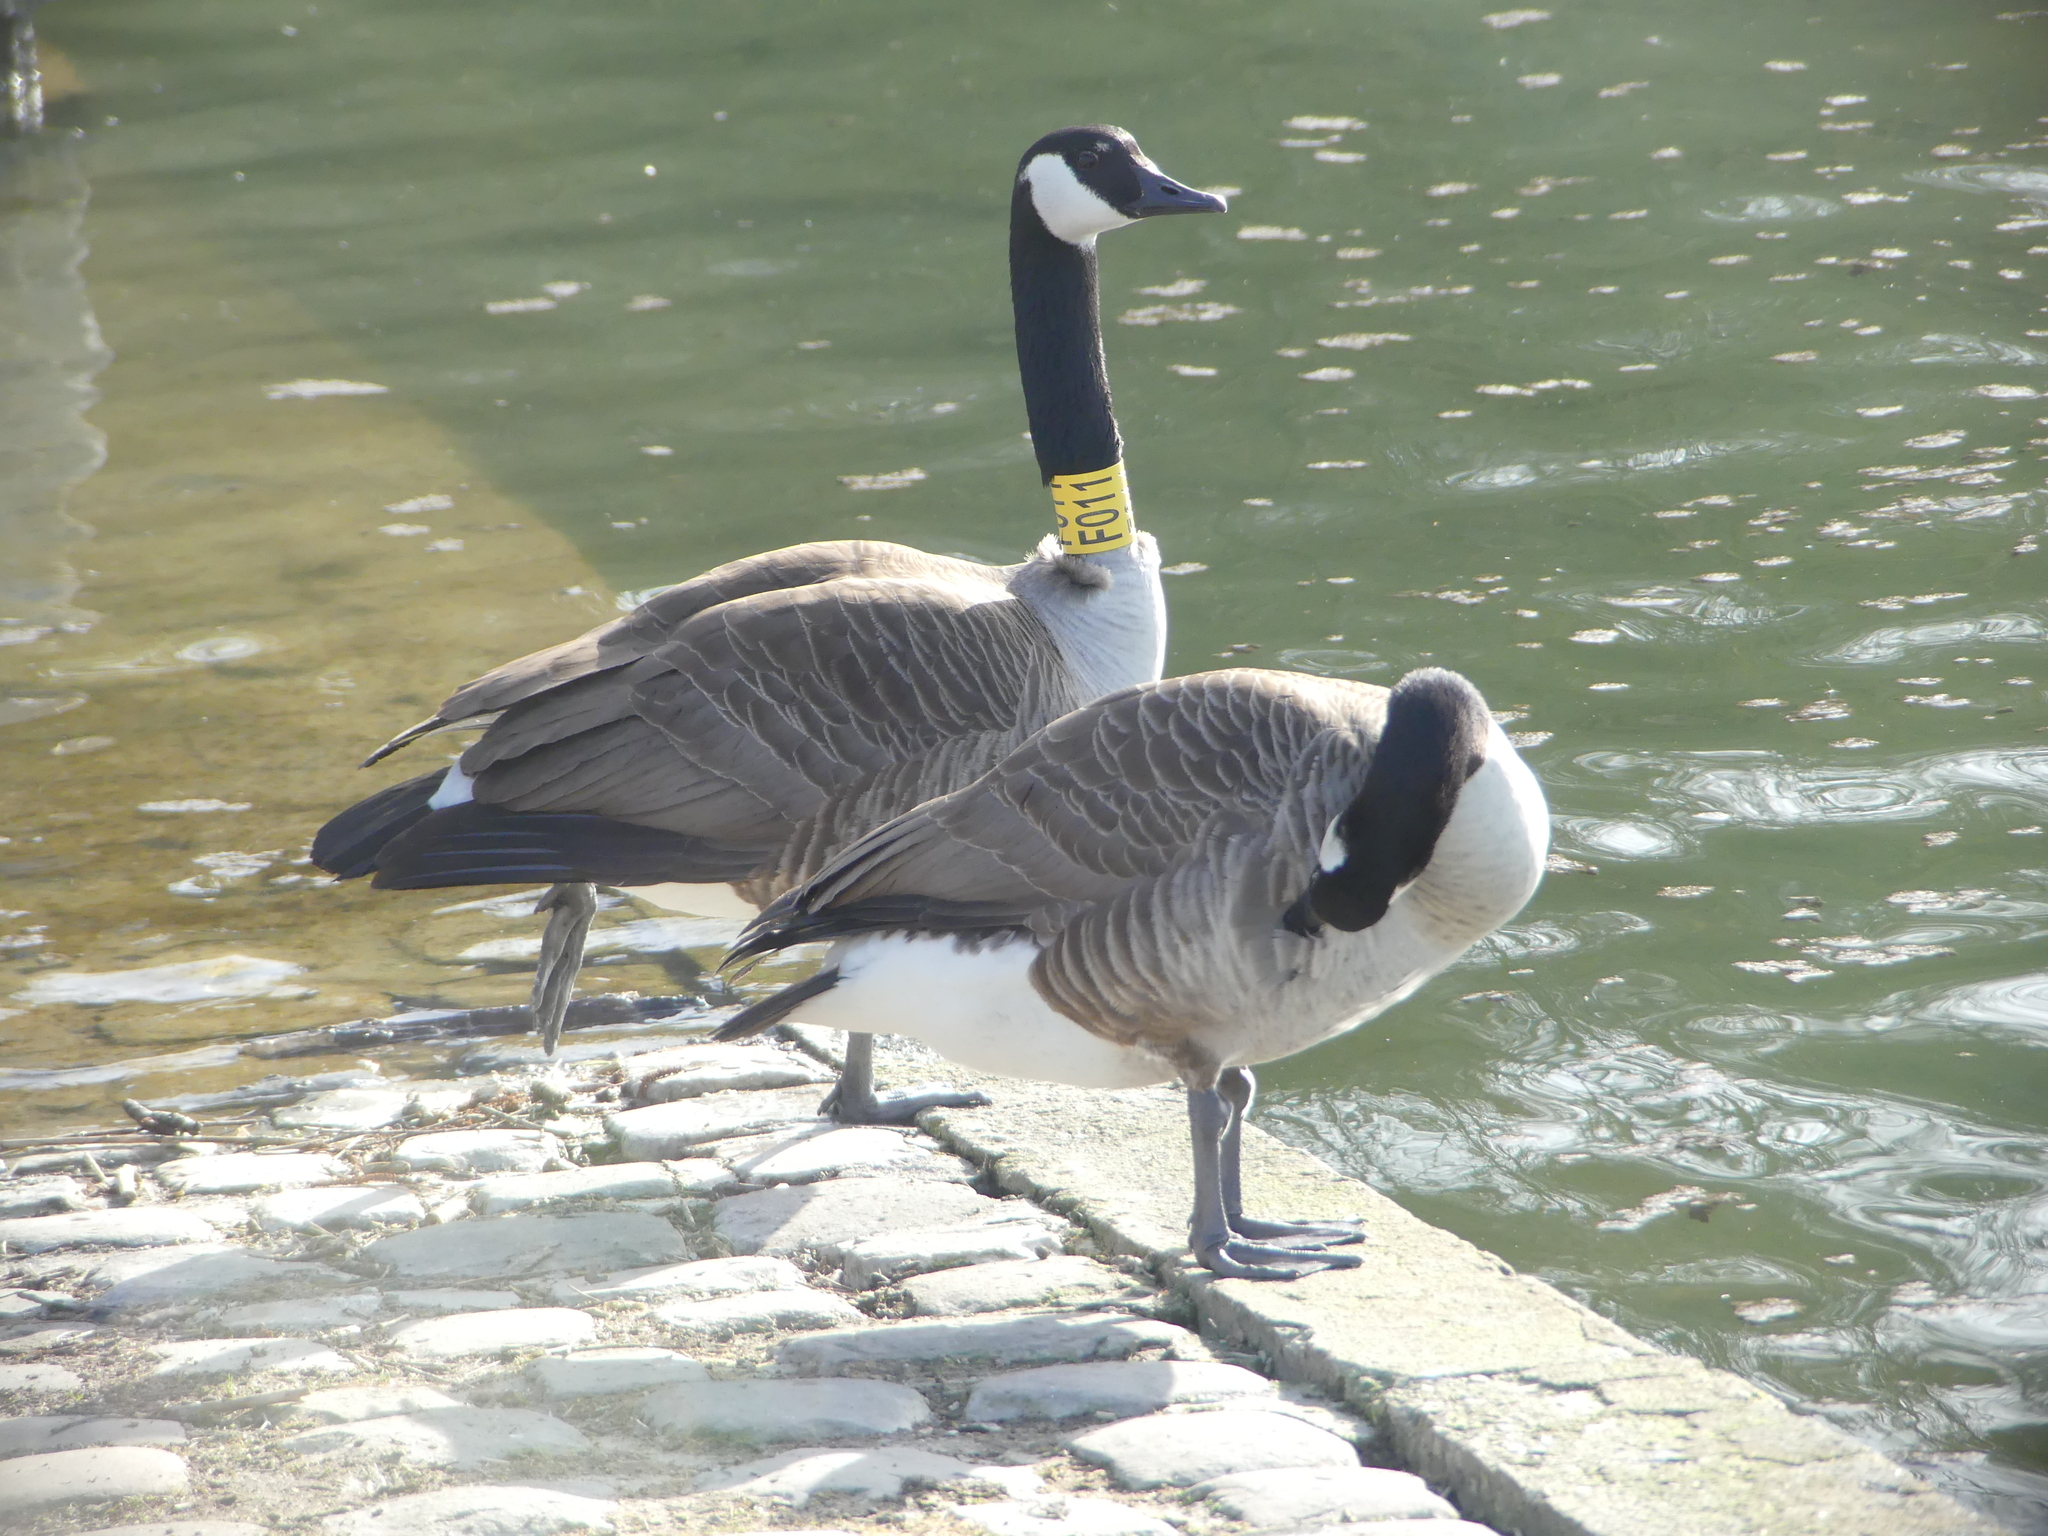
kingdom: Animalia
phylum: Chordata
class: Aves
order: Anseriformes
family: Anatidae
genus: Branta
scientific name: Branta canadensis
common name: Canada goose
